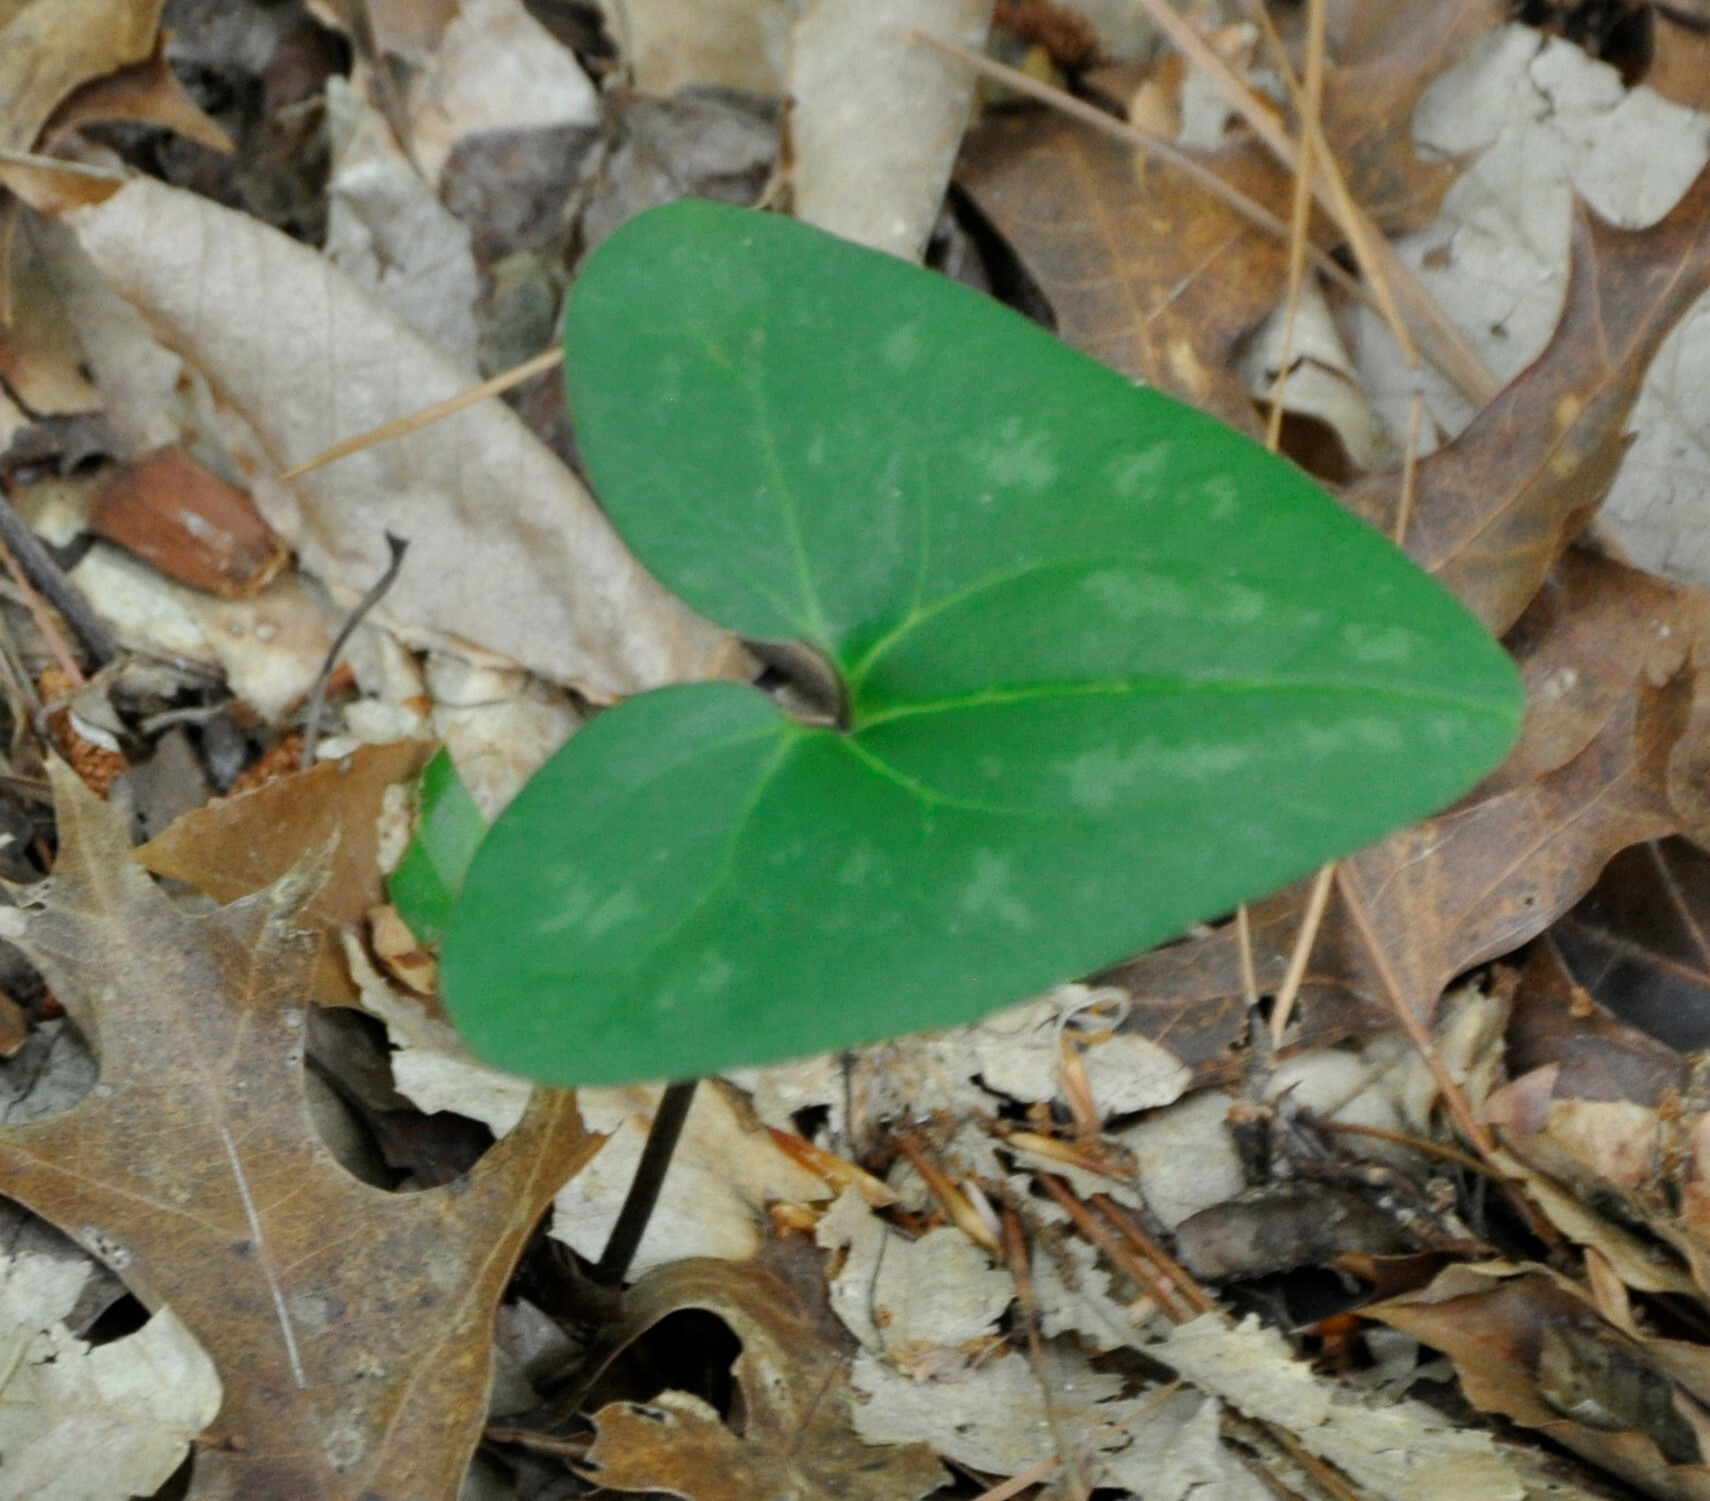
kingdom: Plantae
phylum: Tracheophyta
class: Magnoliopsida
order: Piperales
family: Aristolochiaceae
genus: Hexastylis
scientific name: Hexastylis arifolia
